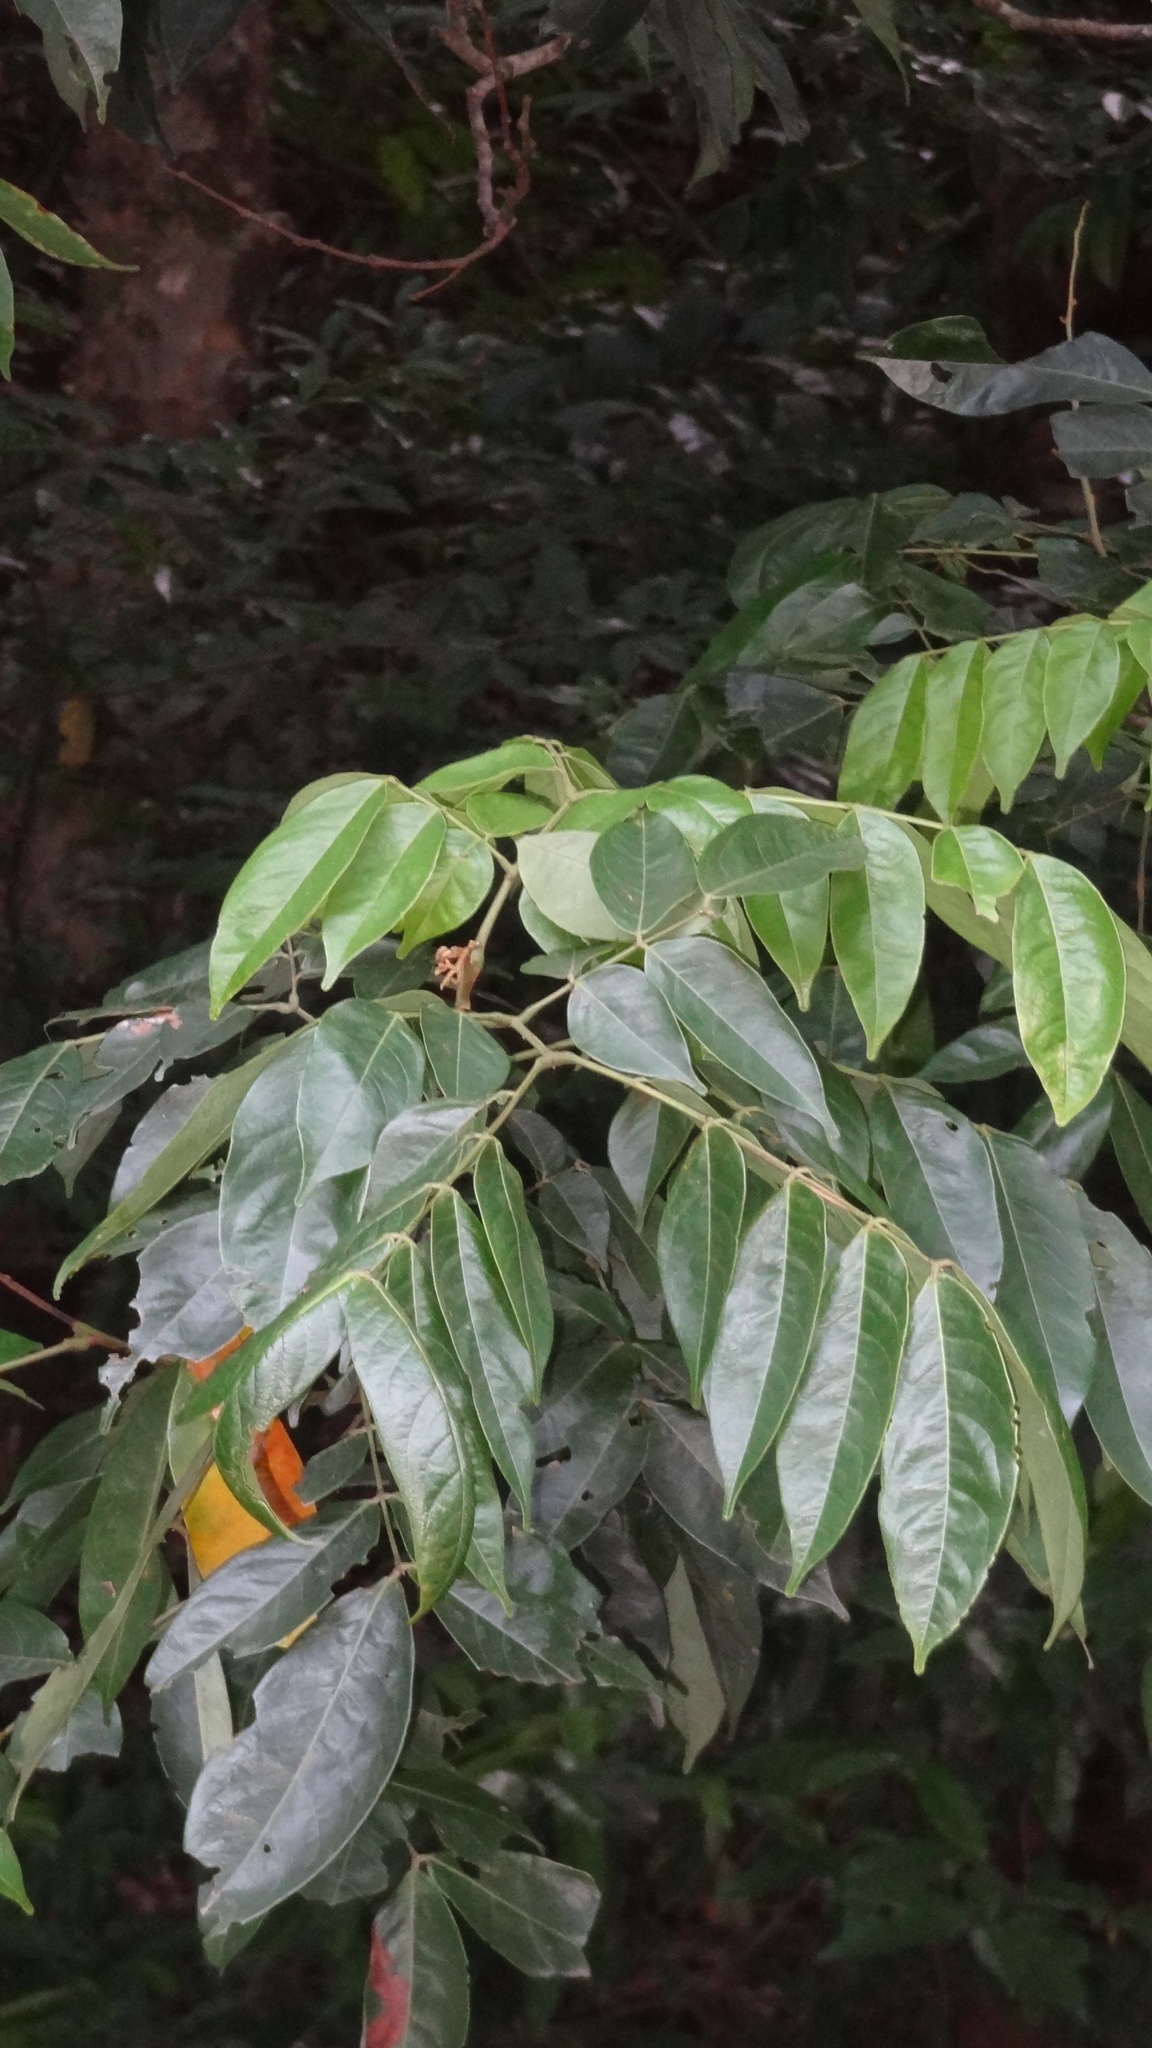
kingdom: Plantae
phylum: Tracheophyta
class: Magnoliopsida
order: Fabales
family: Fabaceae
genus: Archidendron
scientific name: Archidendron bigeminum
